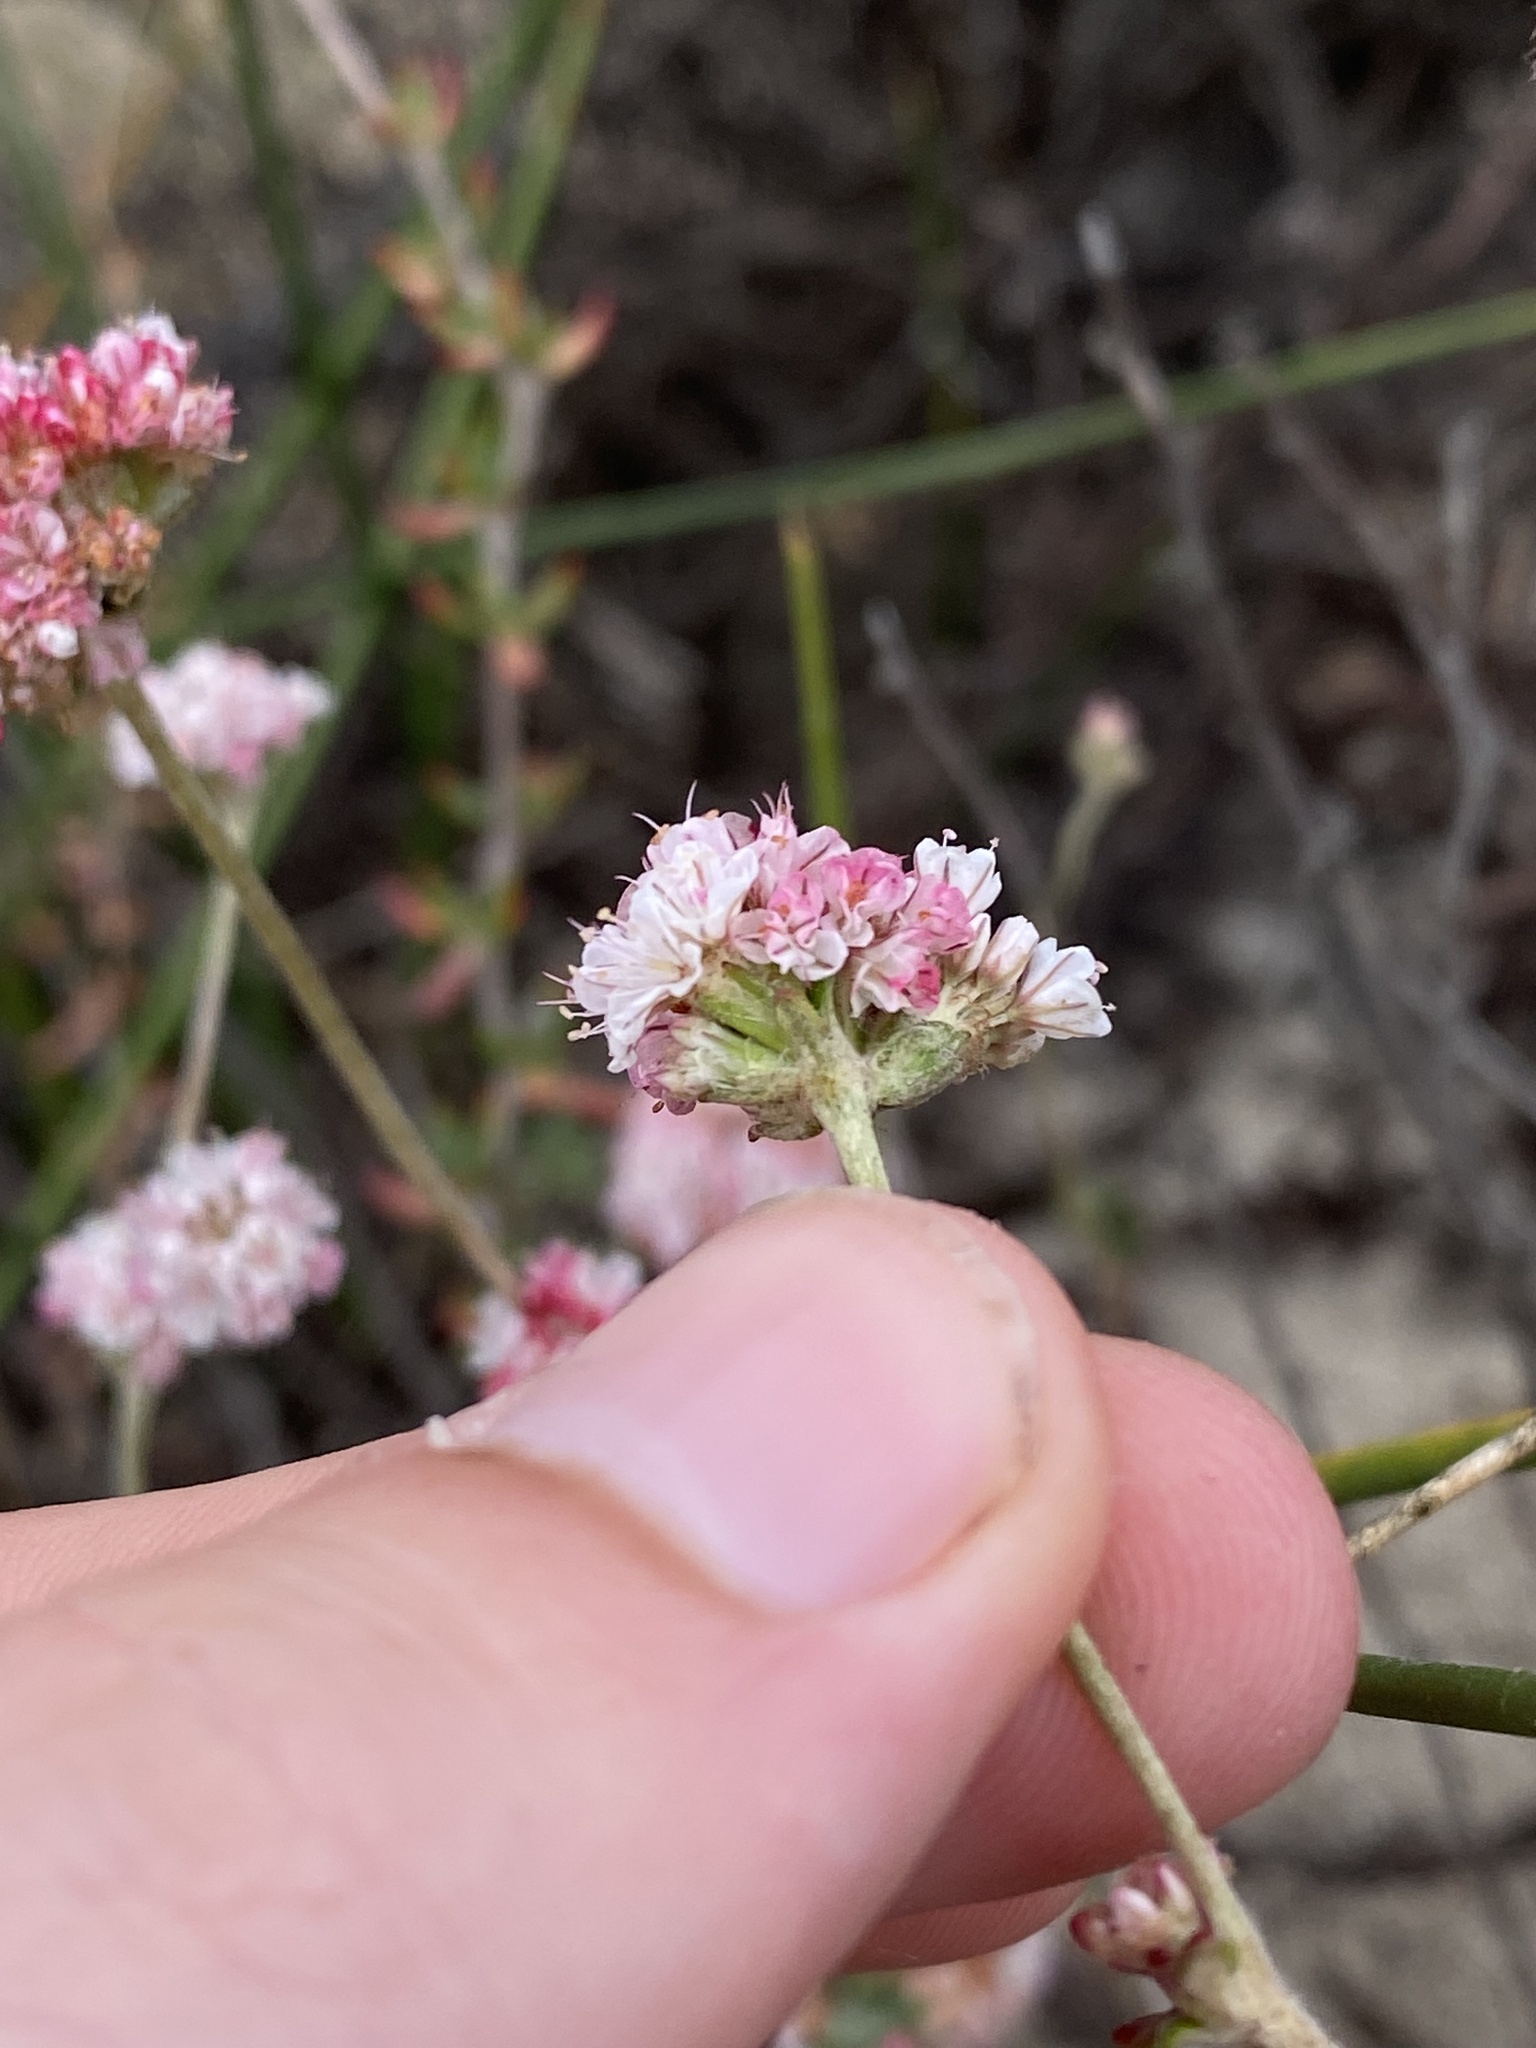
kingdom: Plantae
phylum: Tracheophyta
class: Magnoliopsida
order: Caryophyllales
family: Polygonaceae
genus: Eriogonum
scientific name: Eriogonum parvifolium
